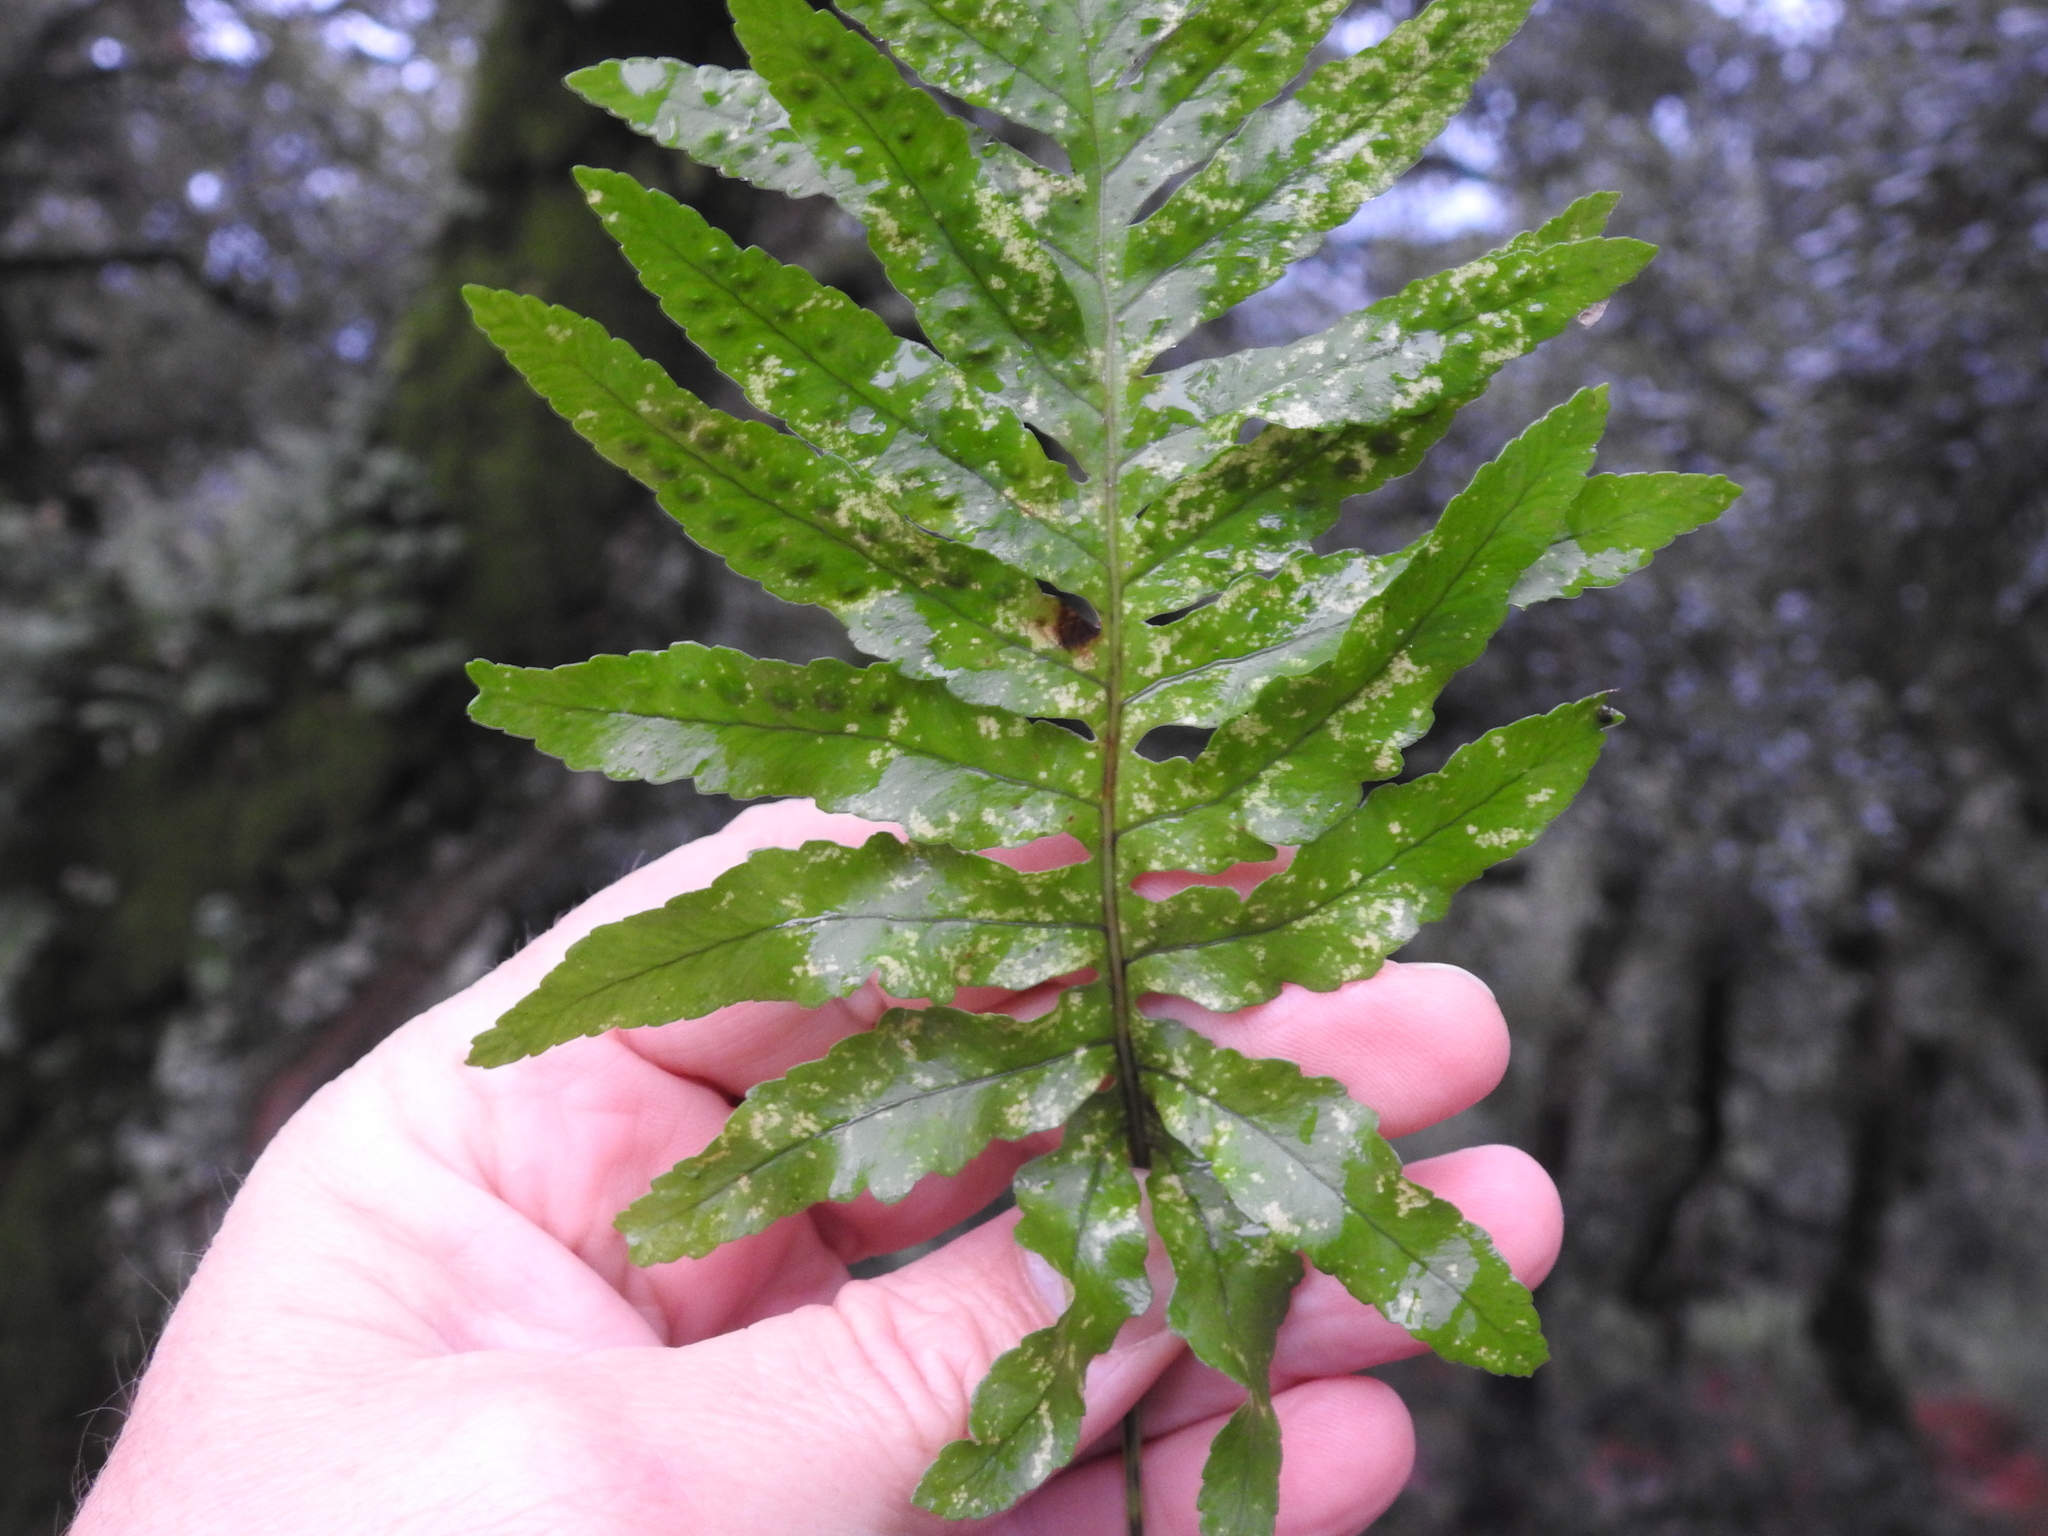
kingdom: Plantae
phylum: Tracheophyta
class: Polypodiopsida
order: Polypodiales
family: Polypodiaceae
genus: Polypodium
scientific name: Polypodium cambricum
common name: Southern polypody
